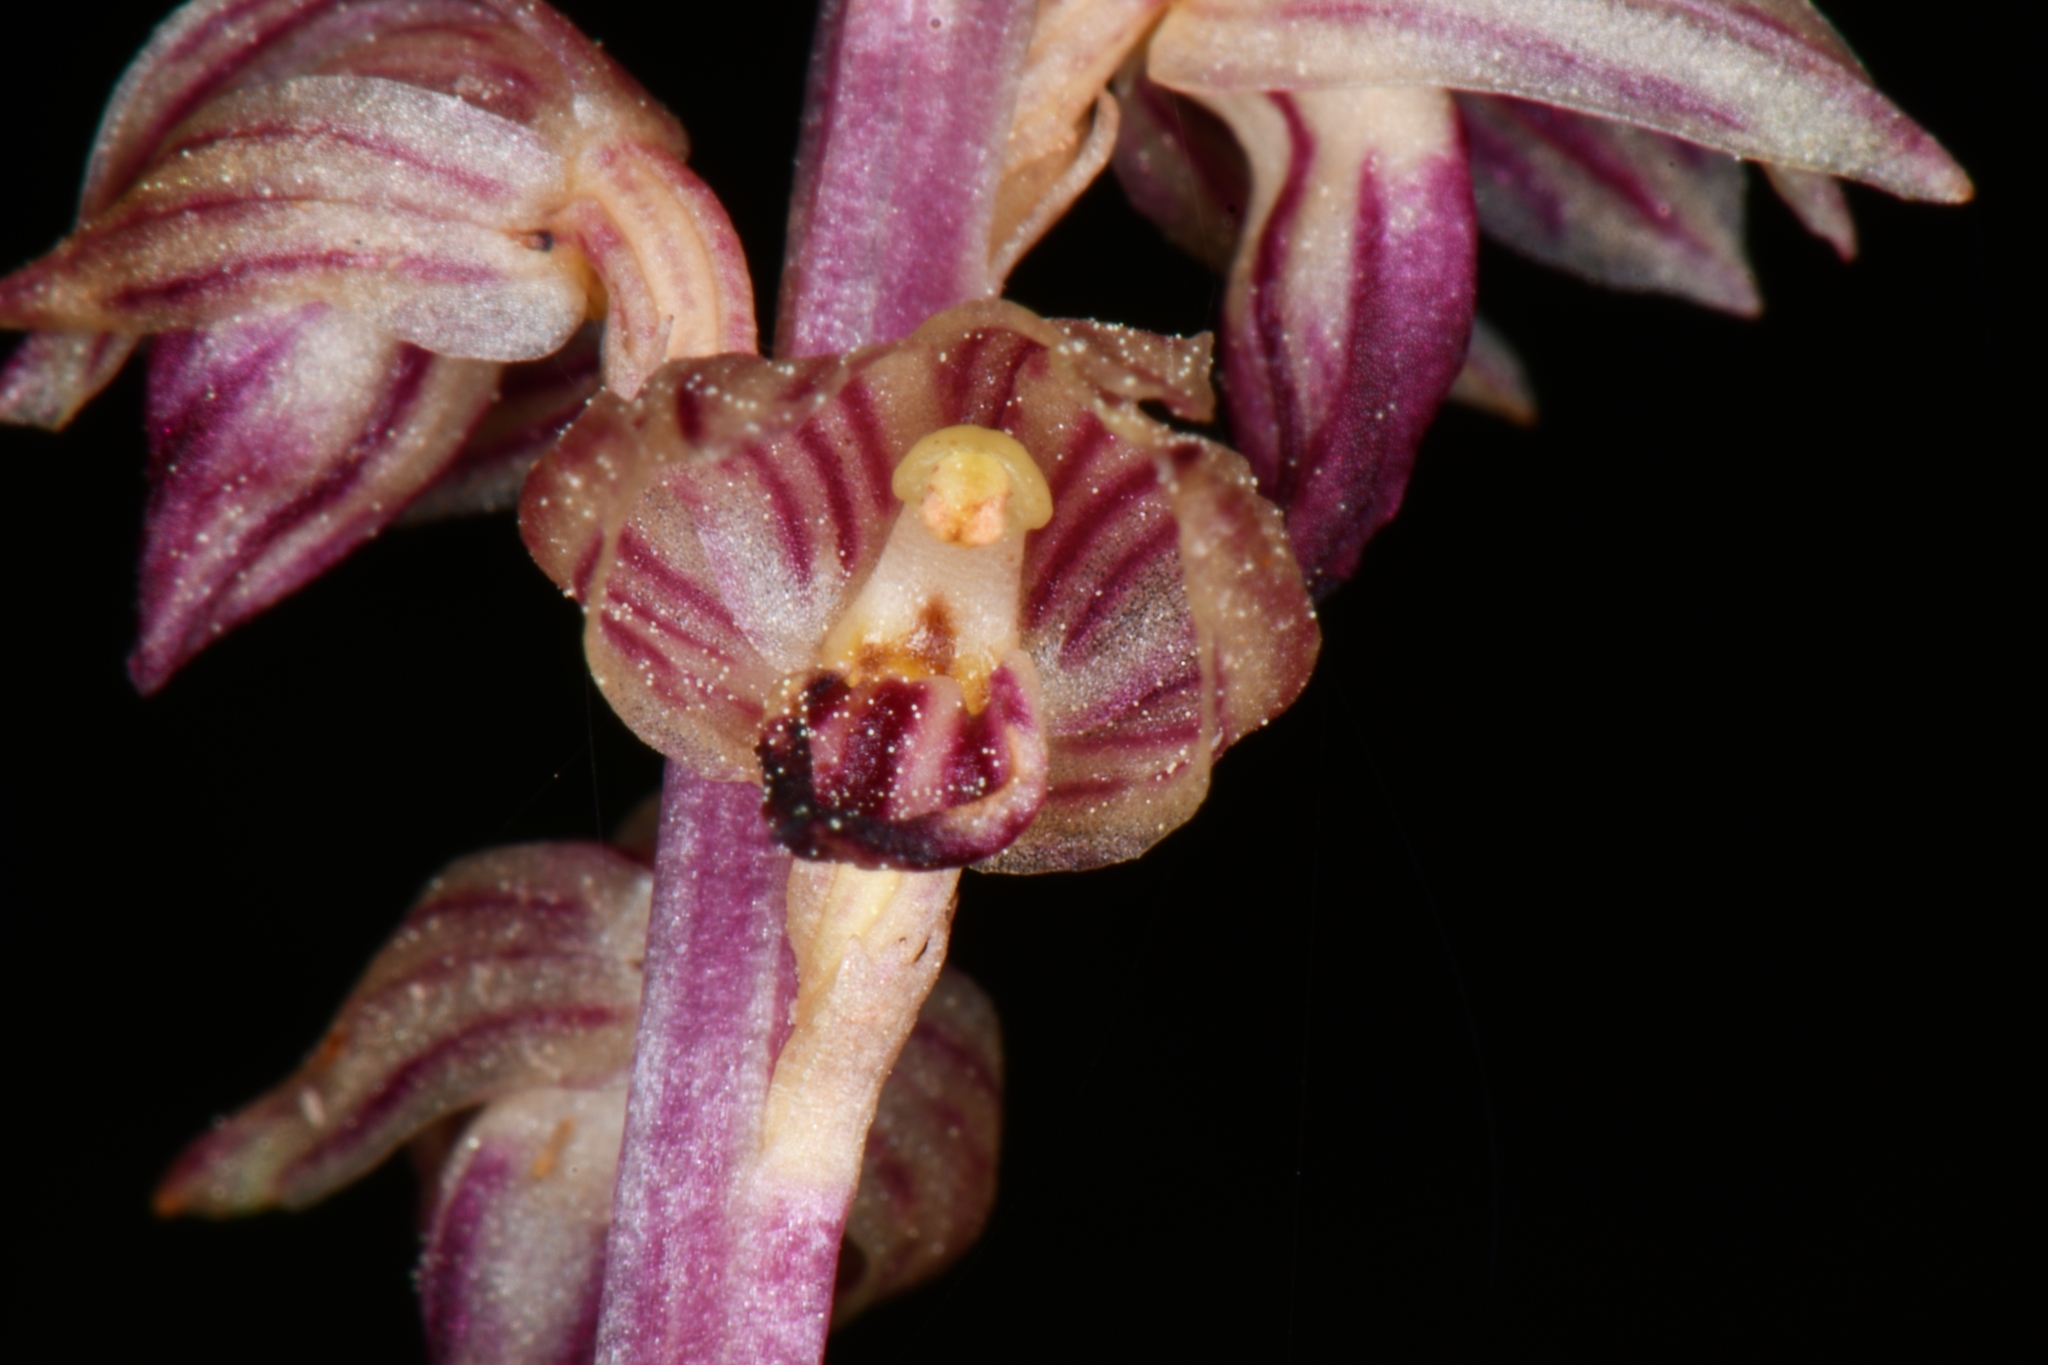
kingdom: Plantae
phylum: Tracheophyta
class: Liliopsida
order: Asparagales
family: Orchidaceae
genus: Corallorhiza
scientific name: Corallorhiza striata
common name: Hooded coralroot
